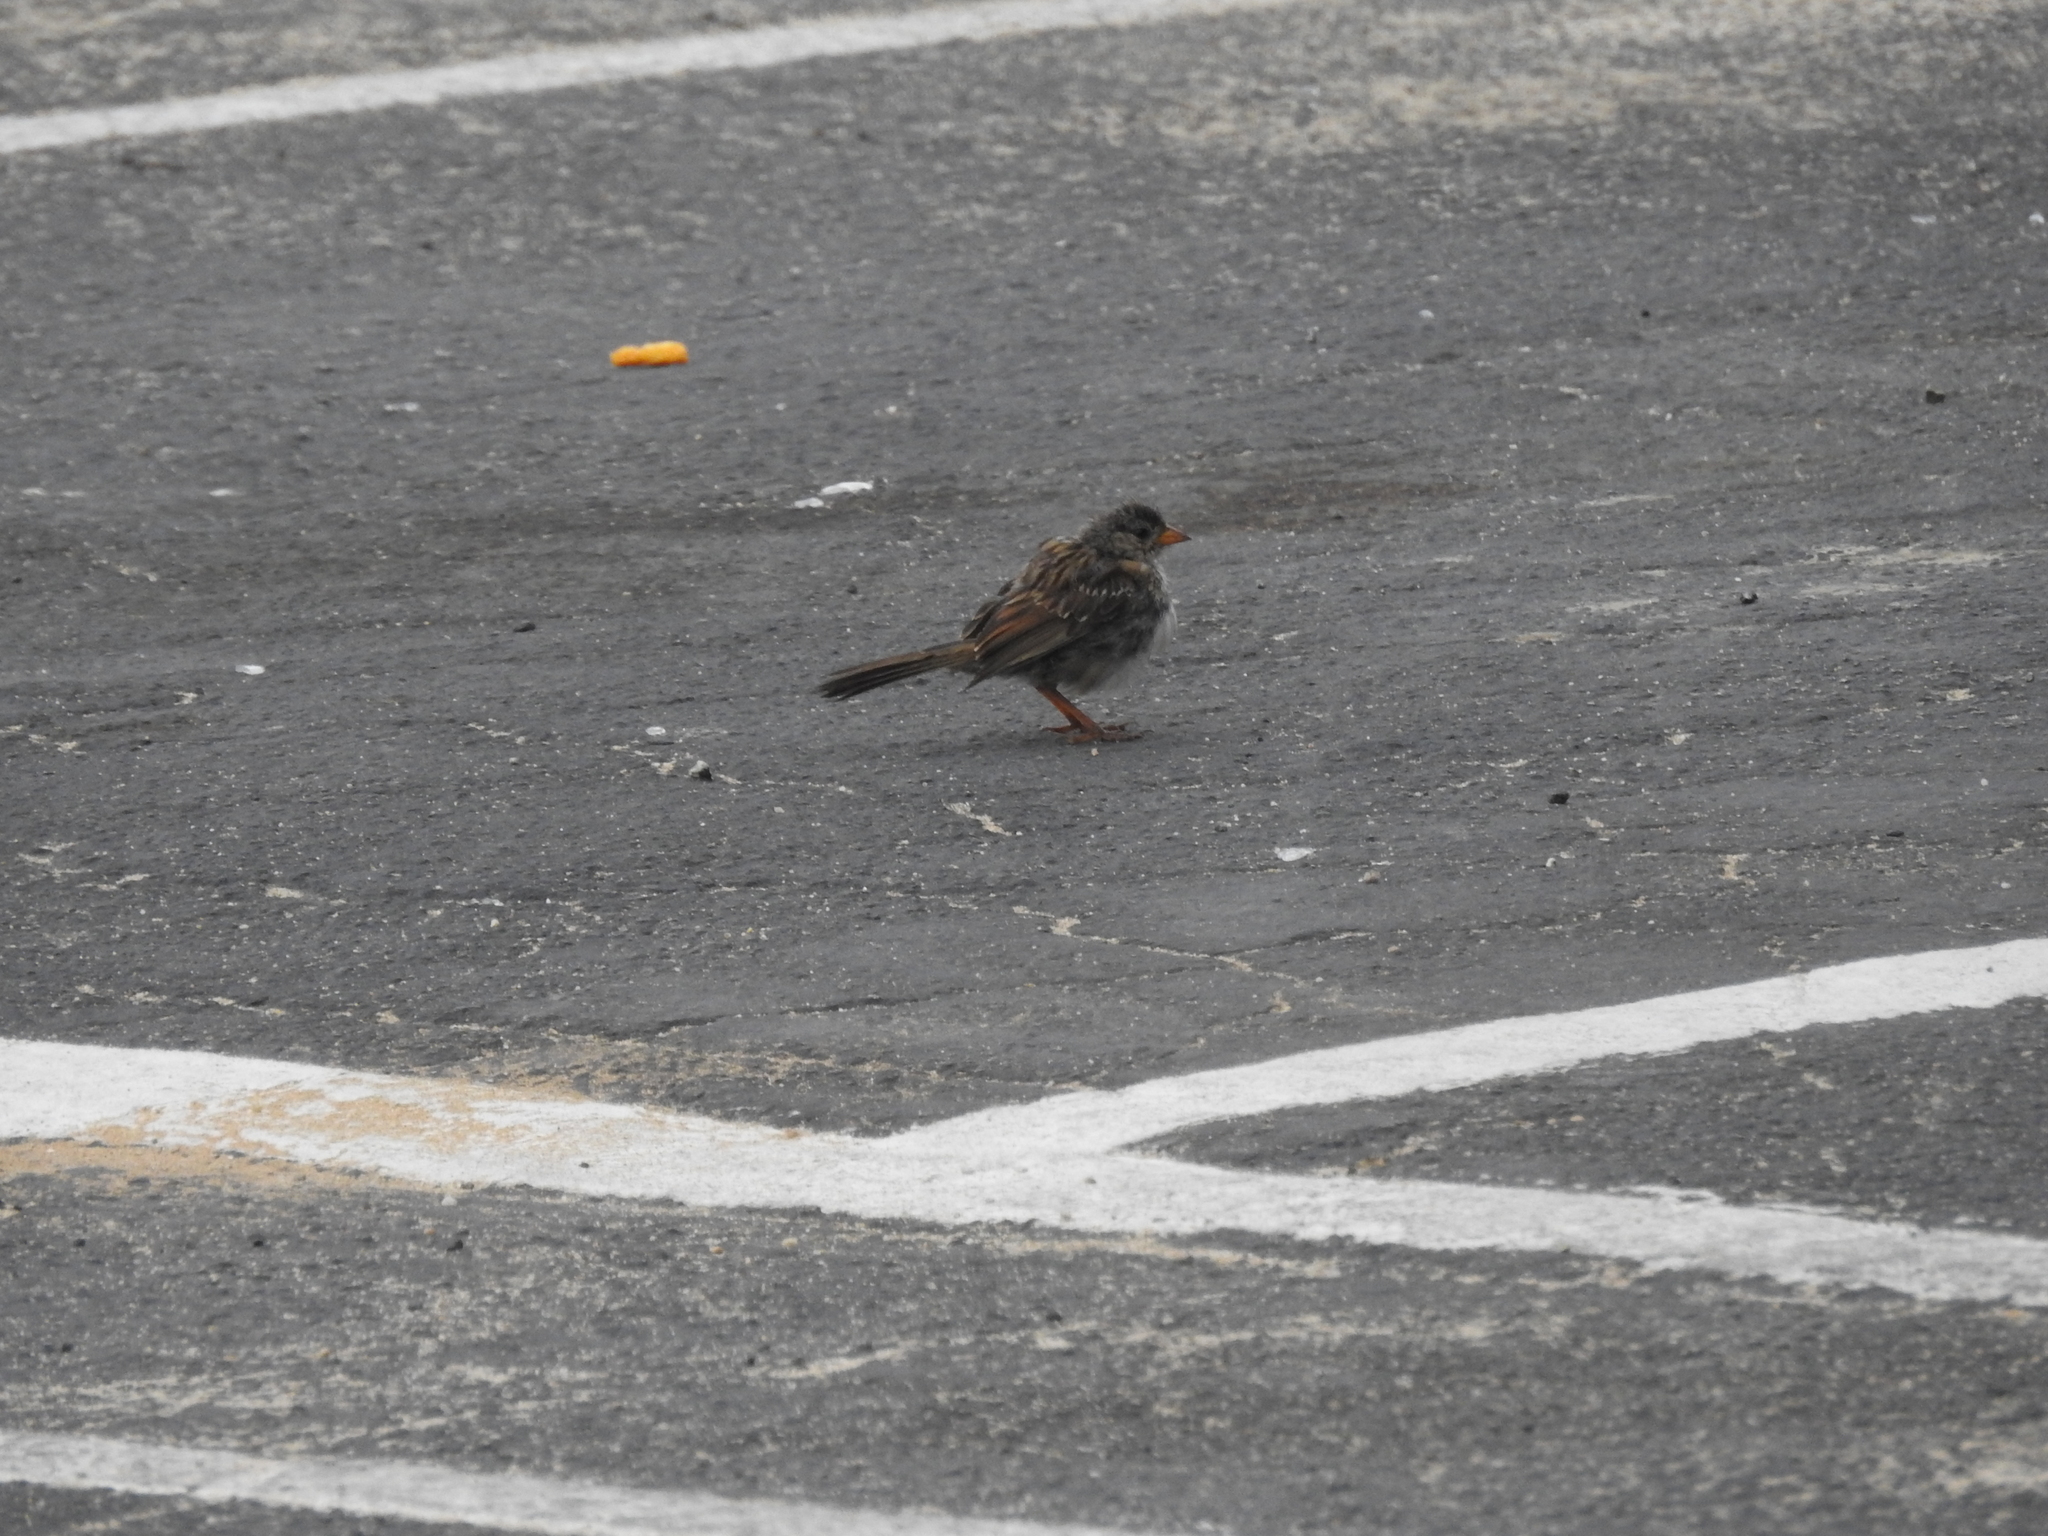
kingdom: Animalia
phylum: Chordata
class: Aves
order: Passeriformes
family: Passerellidae
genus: Zonotrichia
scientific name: Zonotrichia leucophrys
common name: White-crowned sparrow
